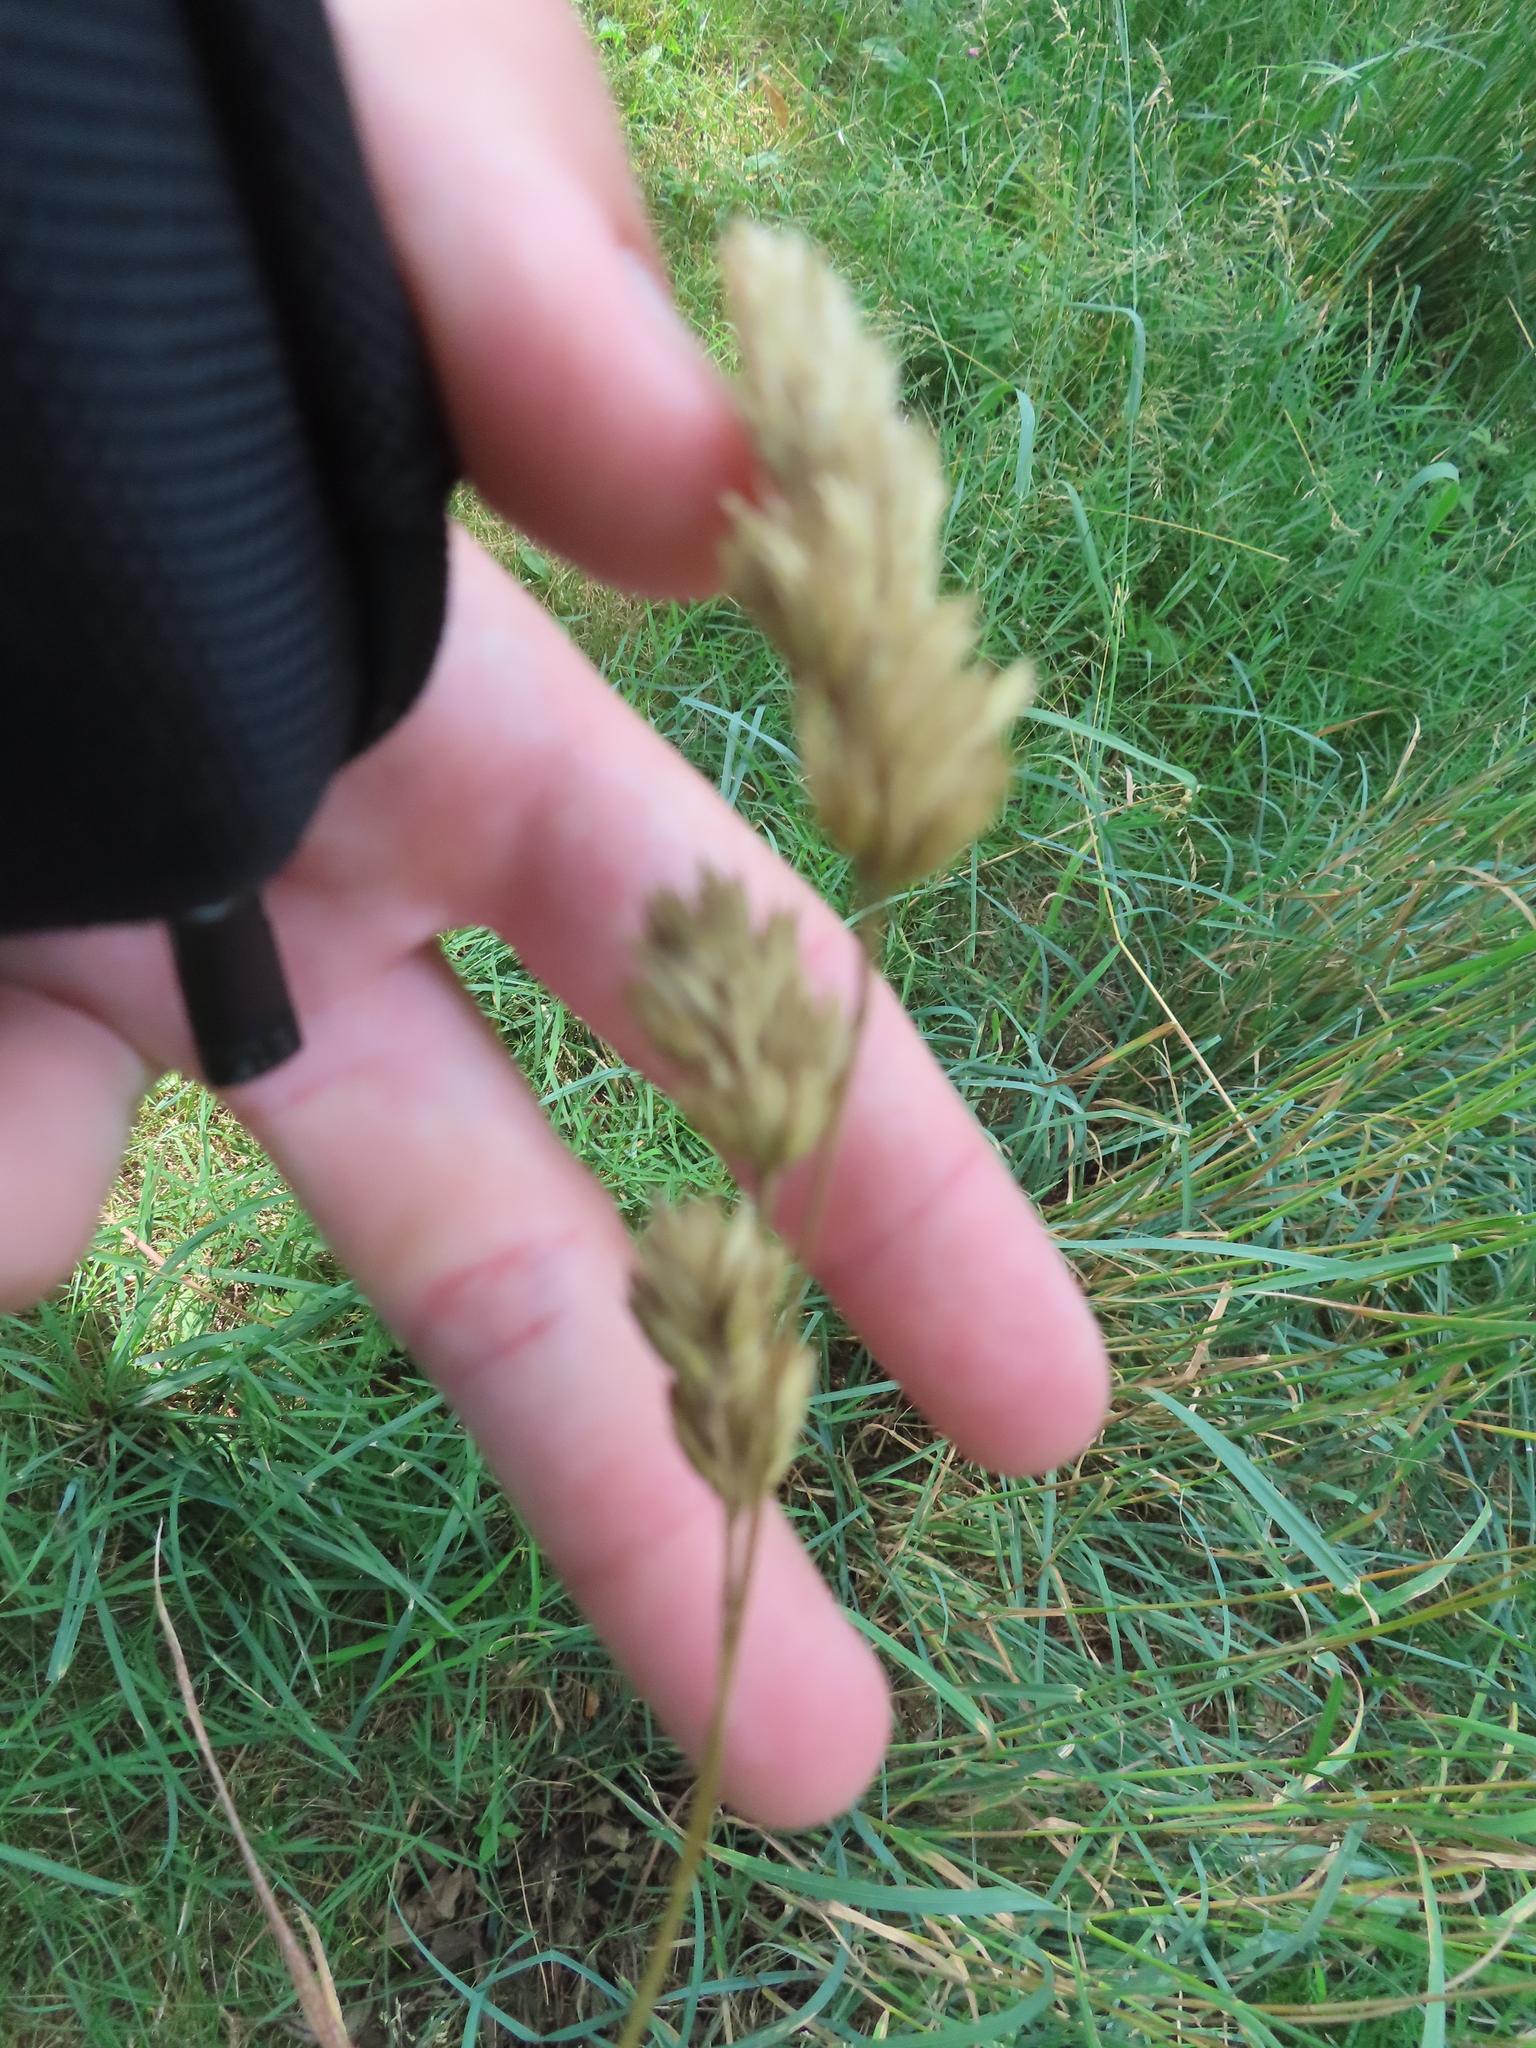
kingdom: Plantae
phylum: Tracheophyta
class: Liliopsida
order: Poales
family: Poaceae
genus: Dactylis
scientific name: Dactylis glomerata
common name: Orchardgrass
